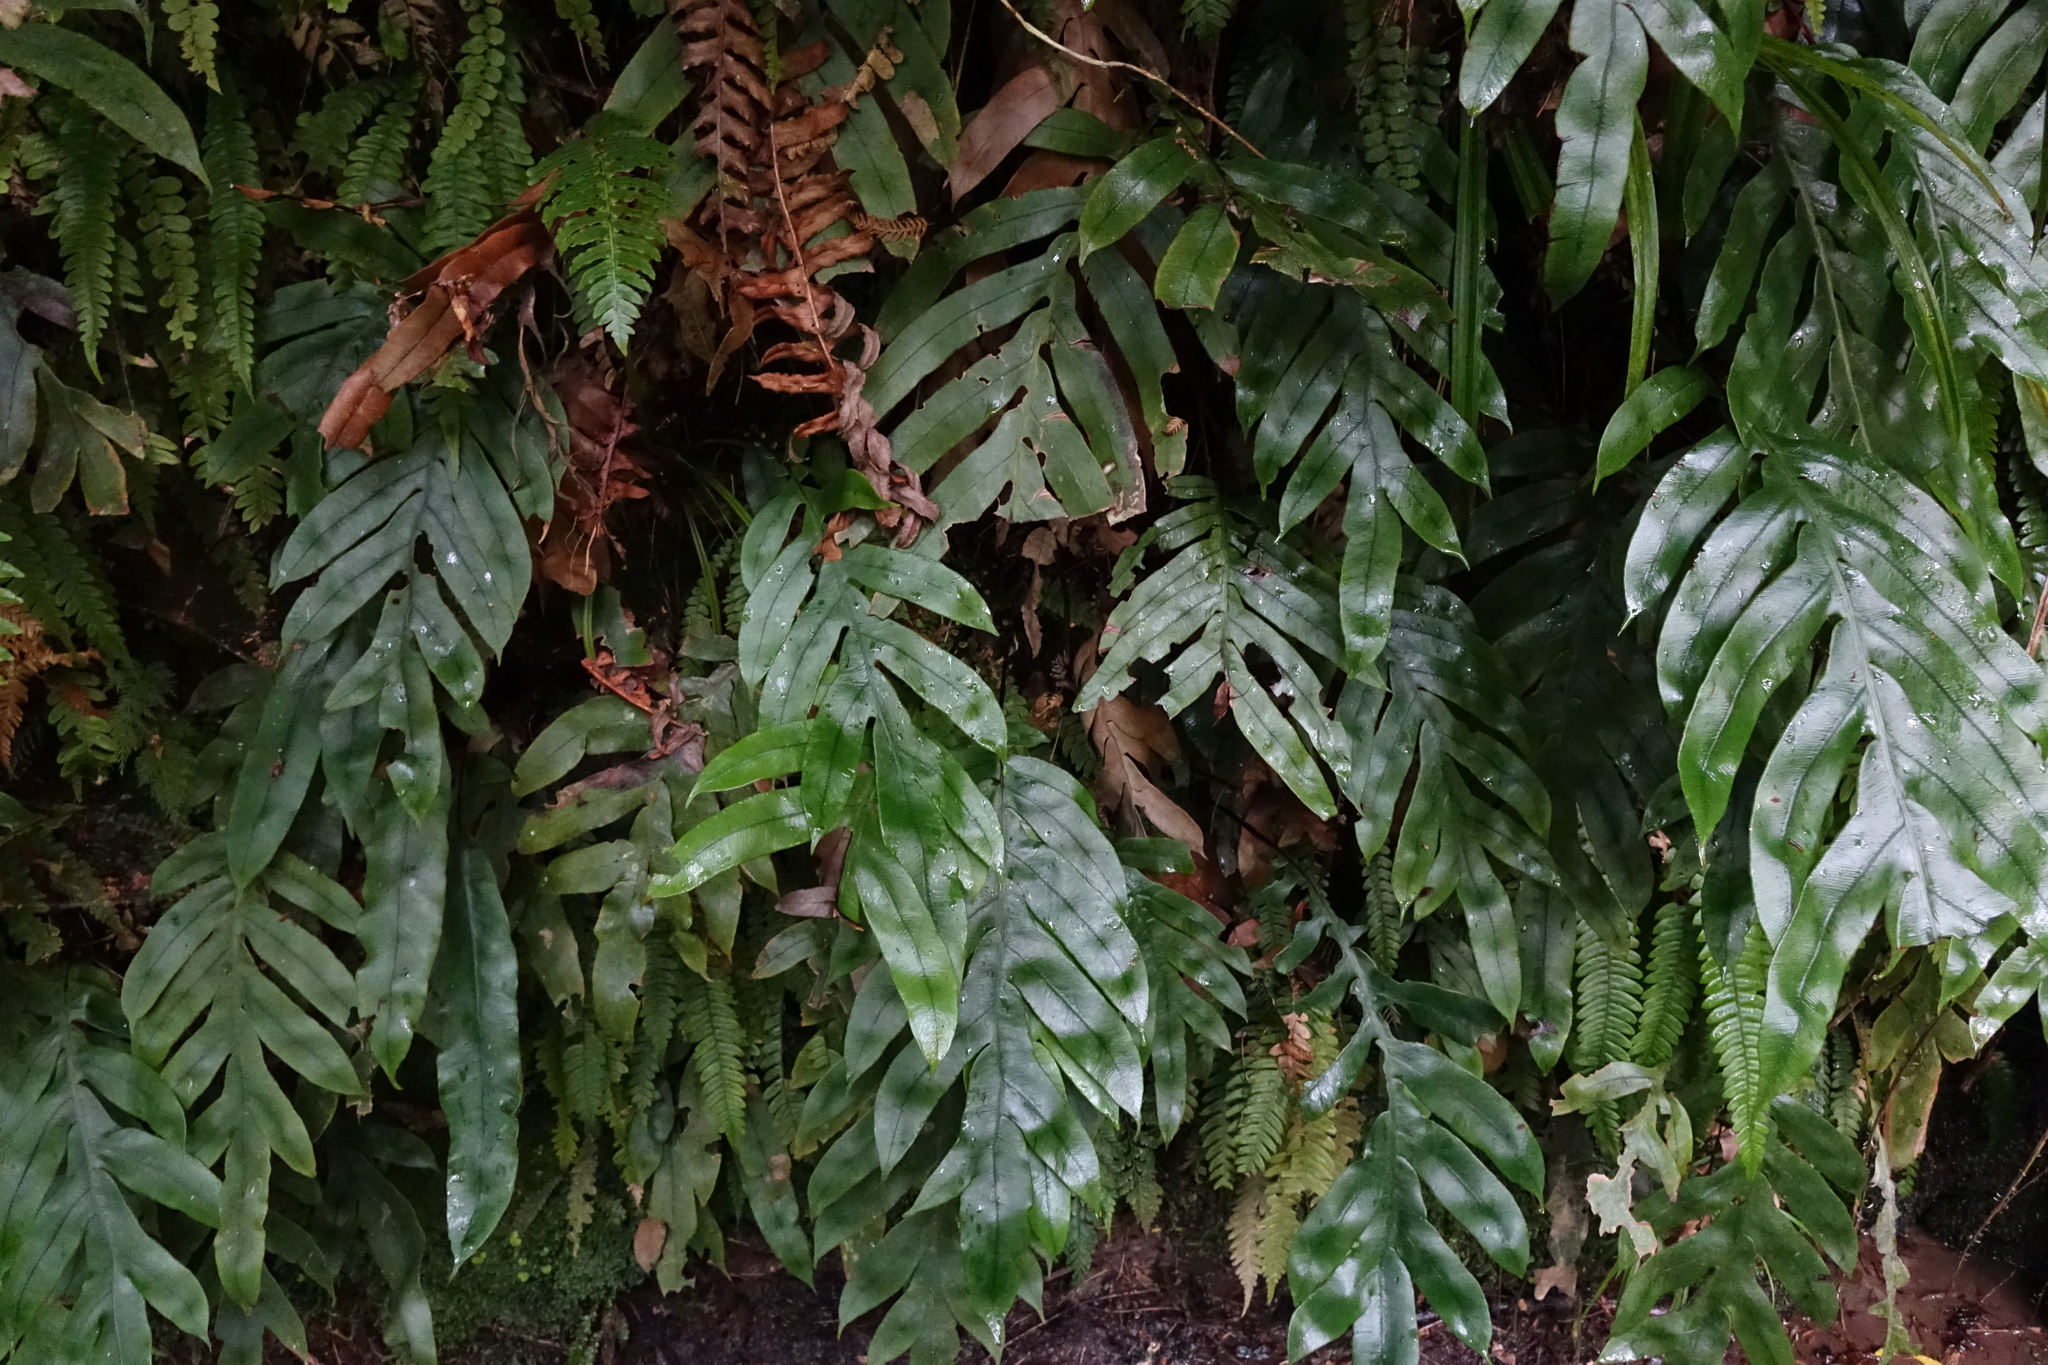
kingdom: Plantae
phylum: Tracheophyta
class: Polypodiopsida
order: Polypodiales
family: Blechnaceae
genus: Austroblechnum
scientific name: Austroblechnum colensoi
